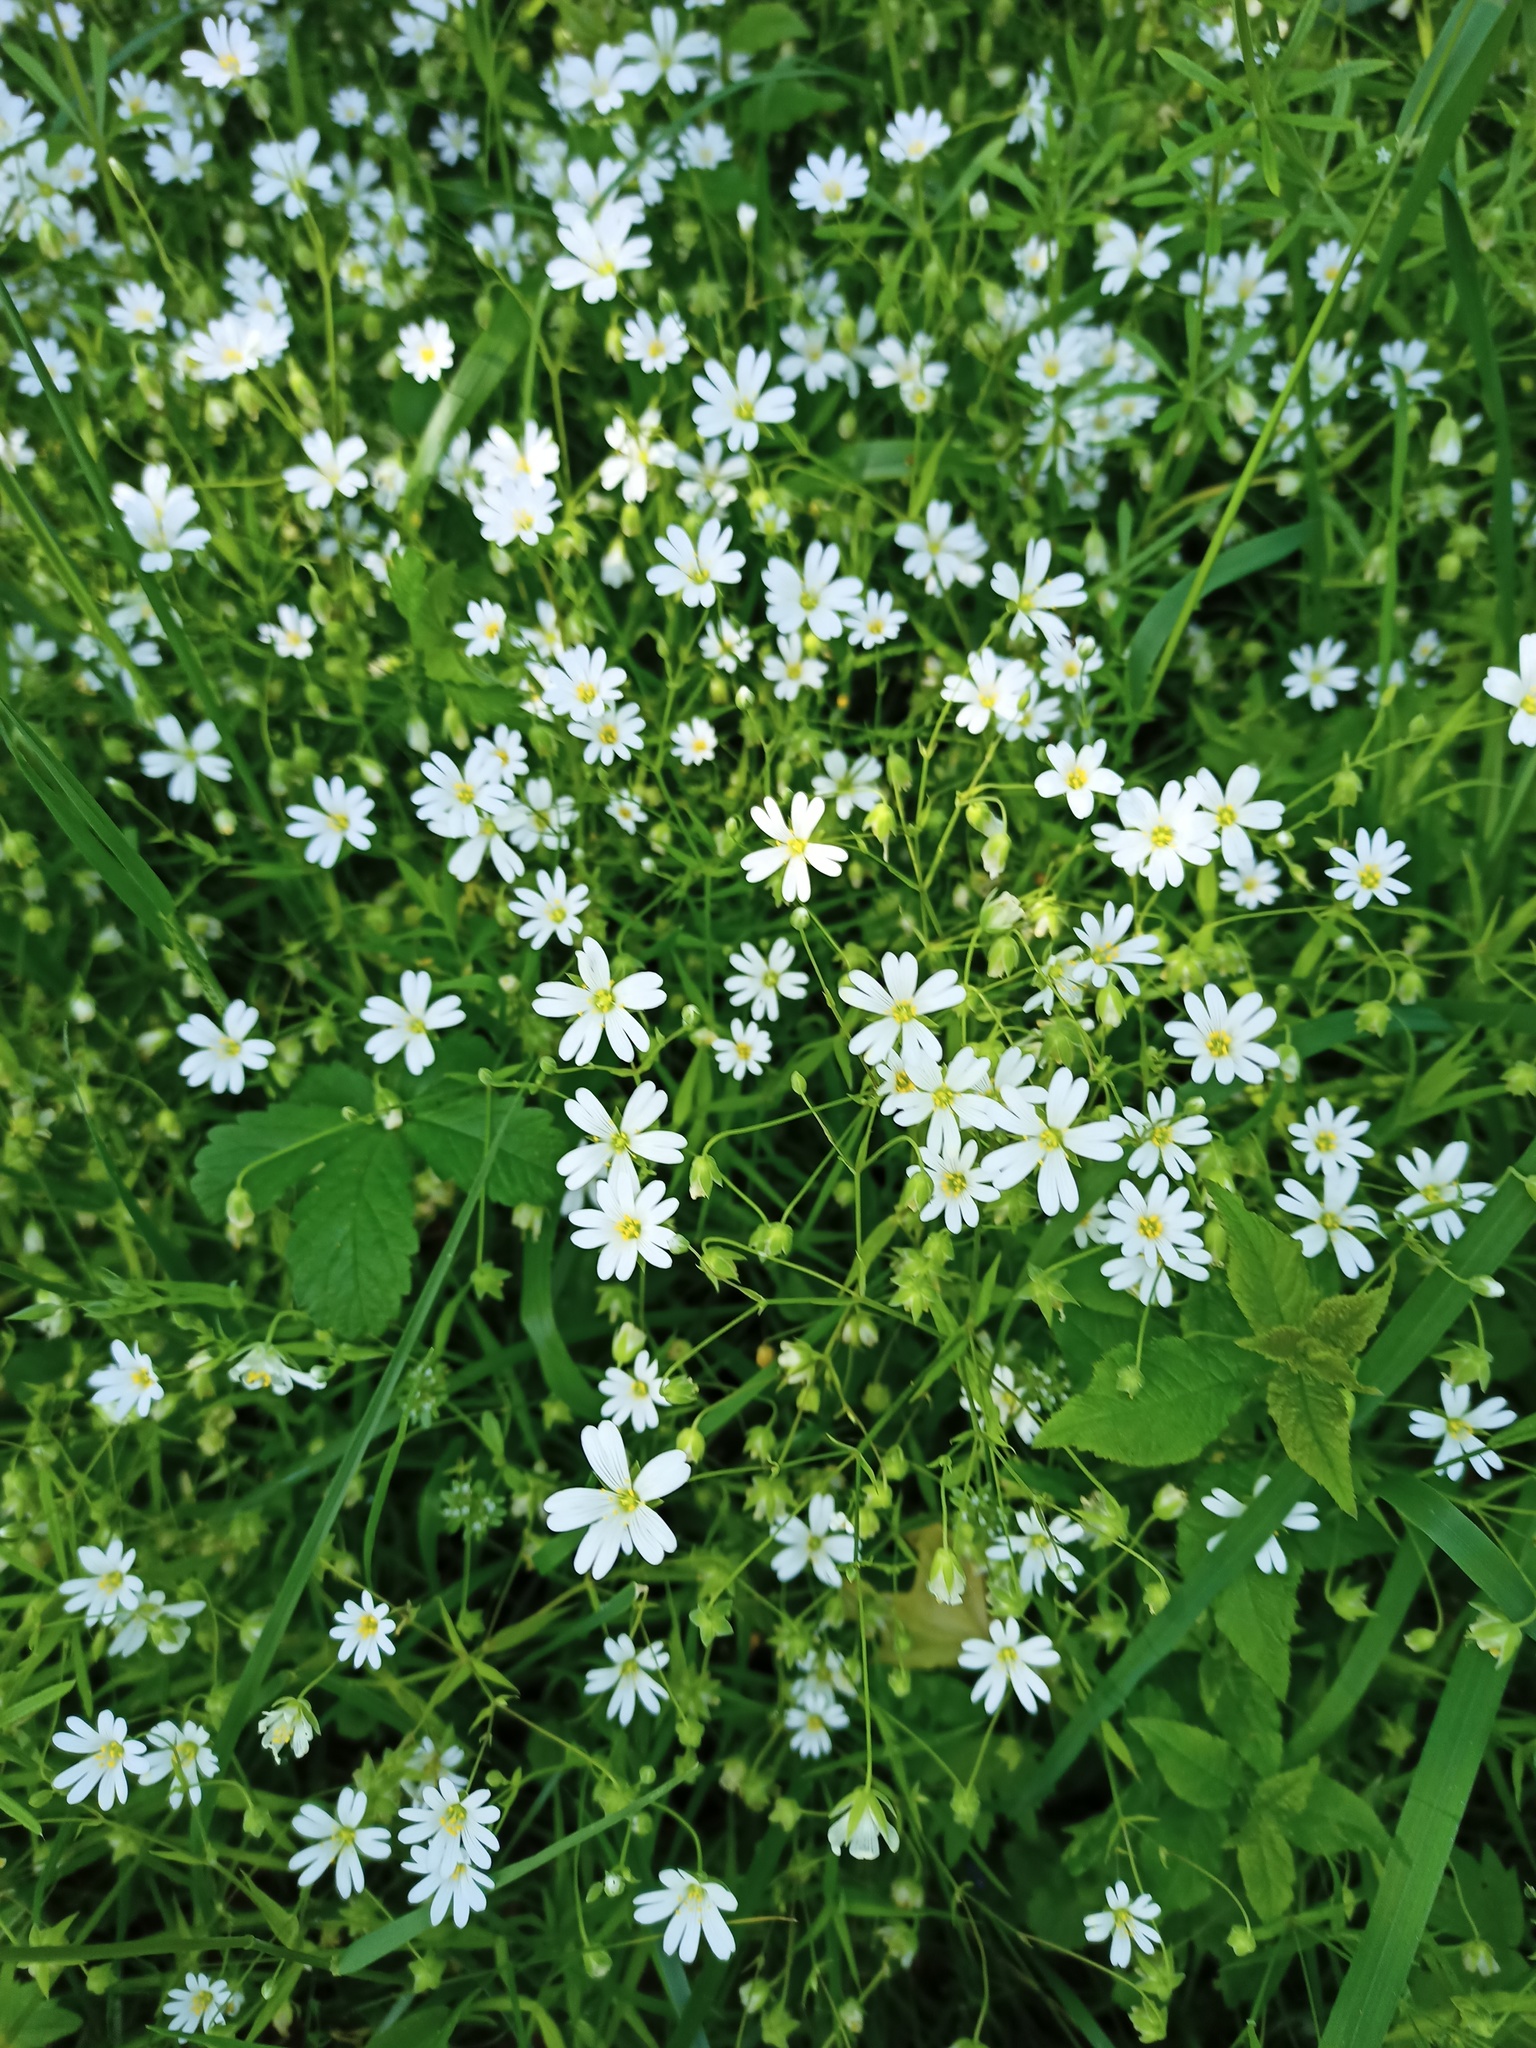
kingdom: Plantae
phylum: Tracheophyta
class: Magnoliopsida
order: Caryophyllales
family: Caryophyllaceae
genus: Rabelera
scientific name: Rabelera holostea
